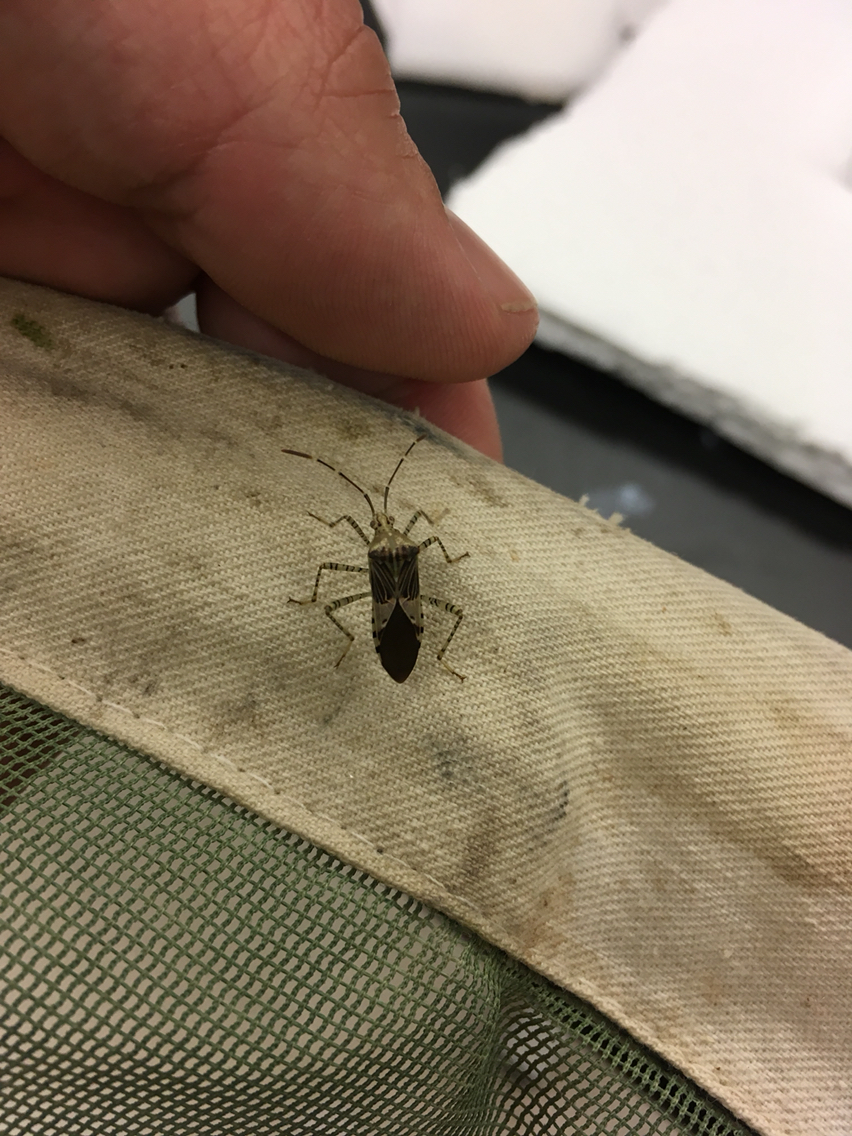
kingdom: Animalia
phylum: Arthropoda
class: Insecta
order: Hemiptera
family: Coreidae
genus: Hypselonotus
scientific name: Hypselonotus punctiventris
